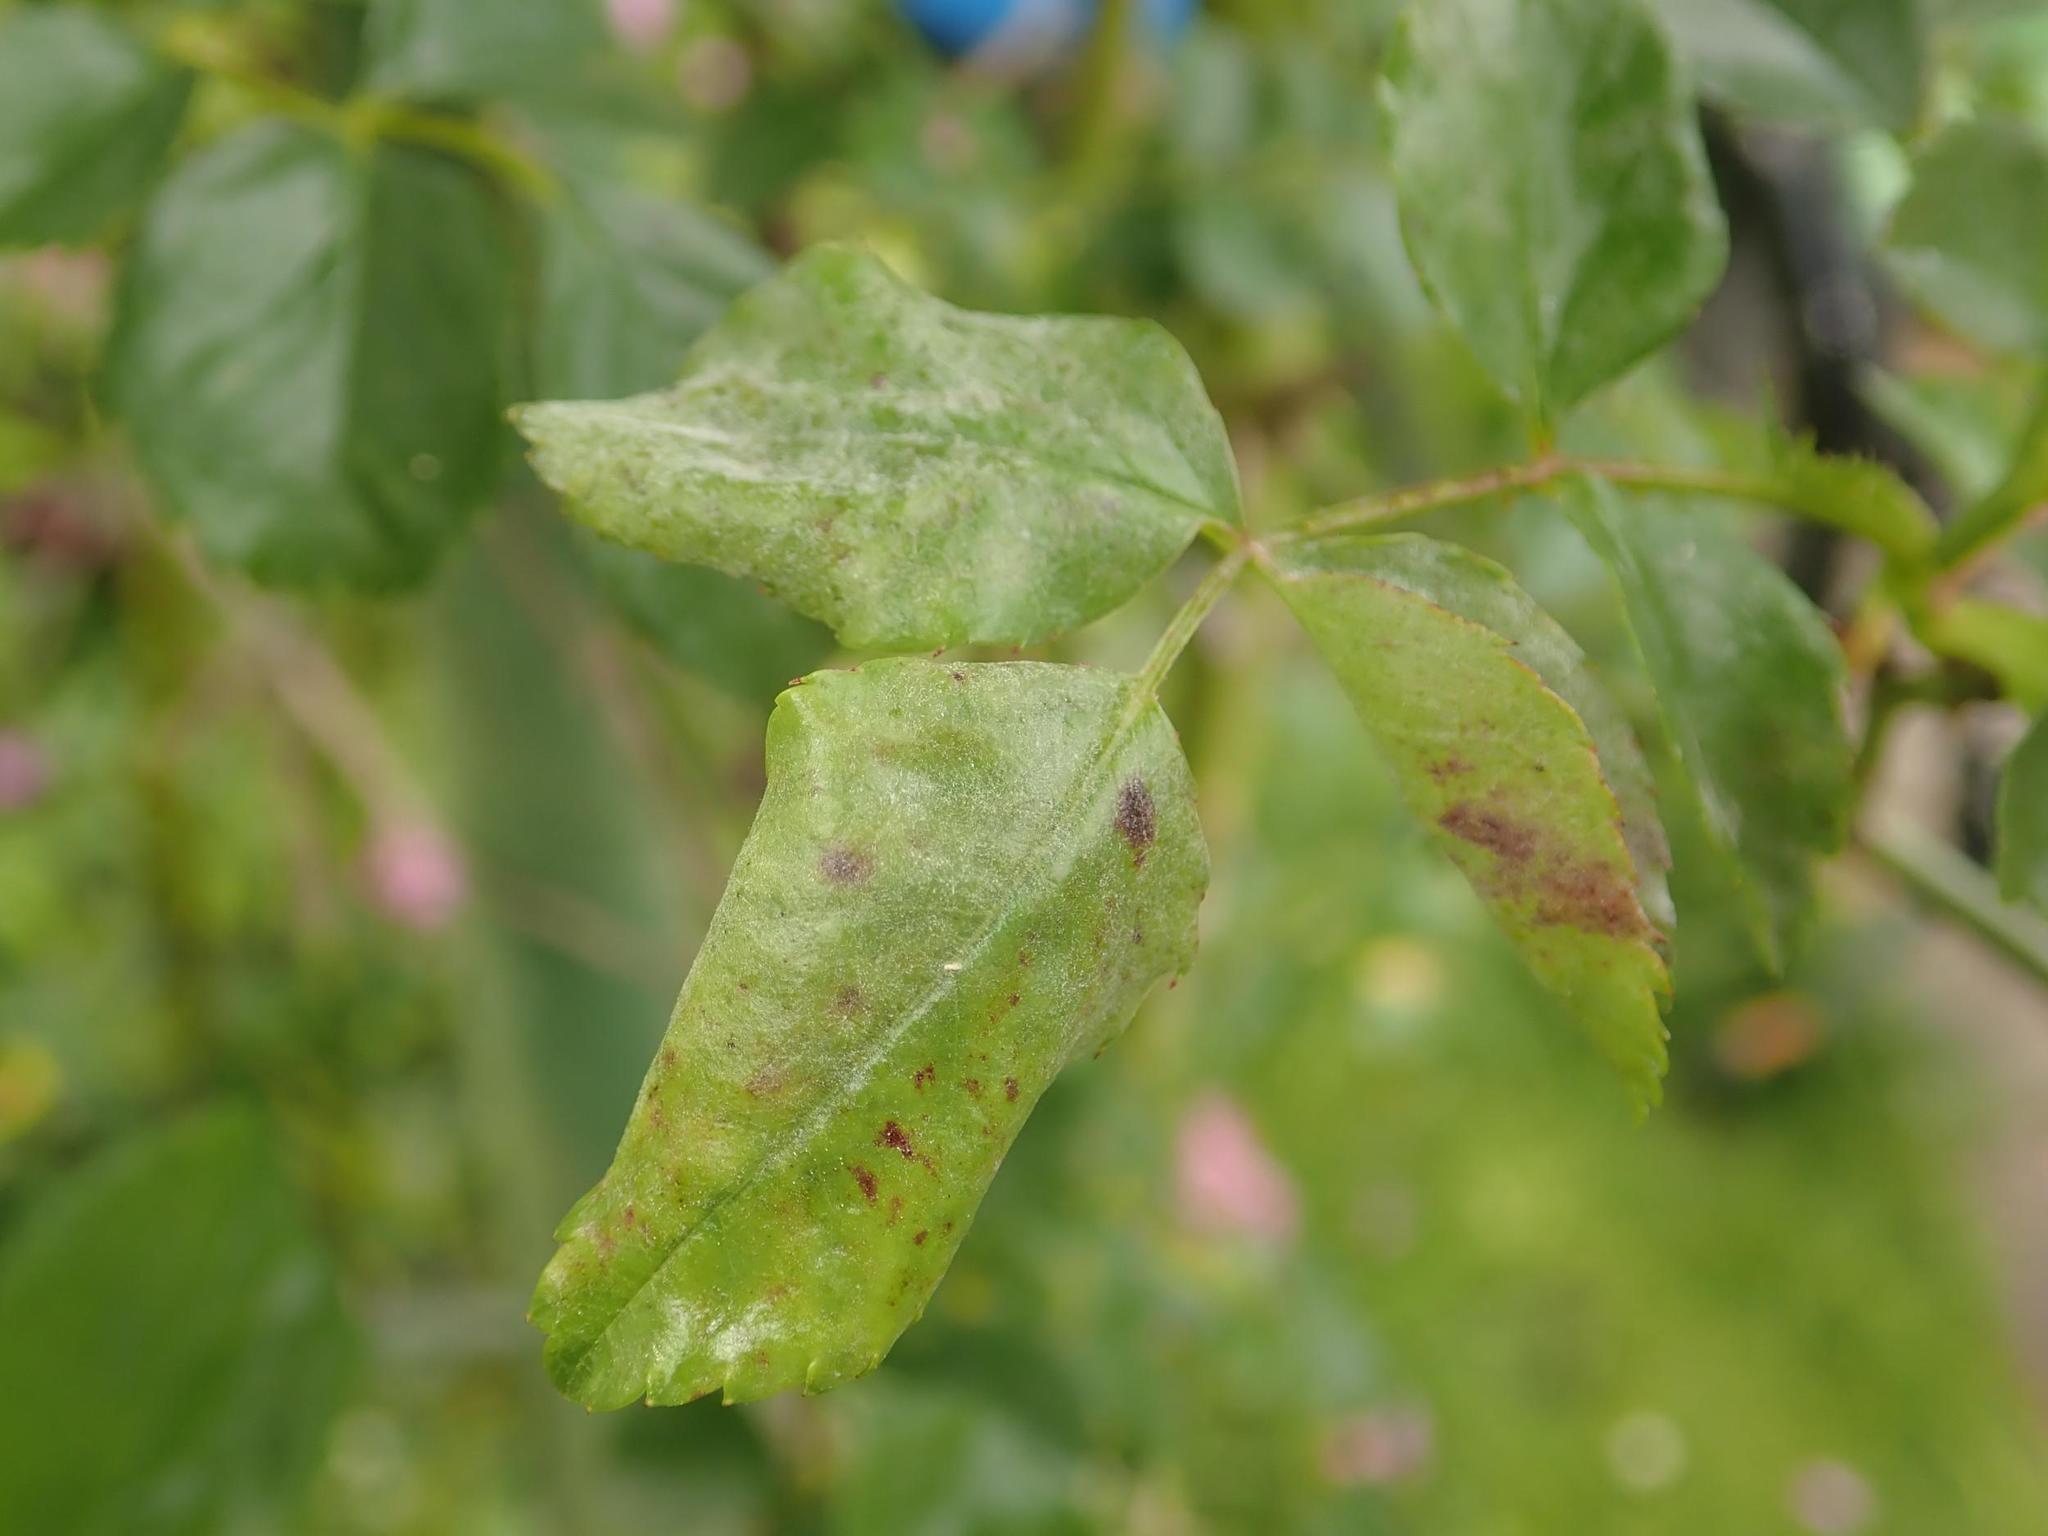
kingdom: Fungi
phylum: Ascomycota
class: Leotiomycetes
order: Helotiales
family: Erysiphaceae
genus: Podosphaera
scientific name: Podosphaera pannosa
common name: Rose mildew
